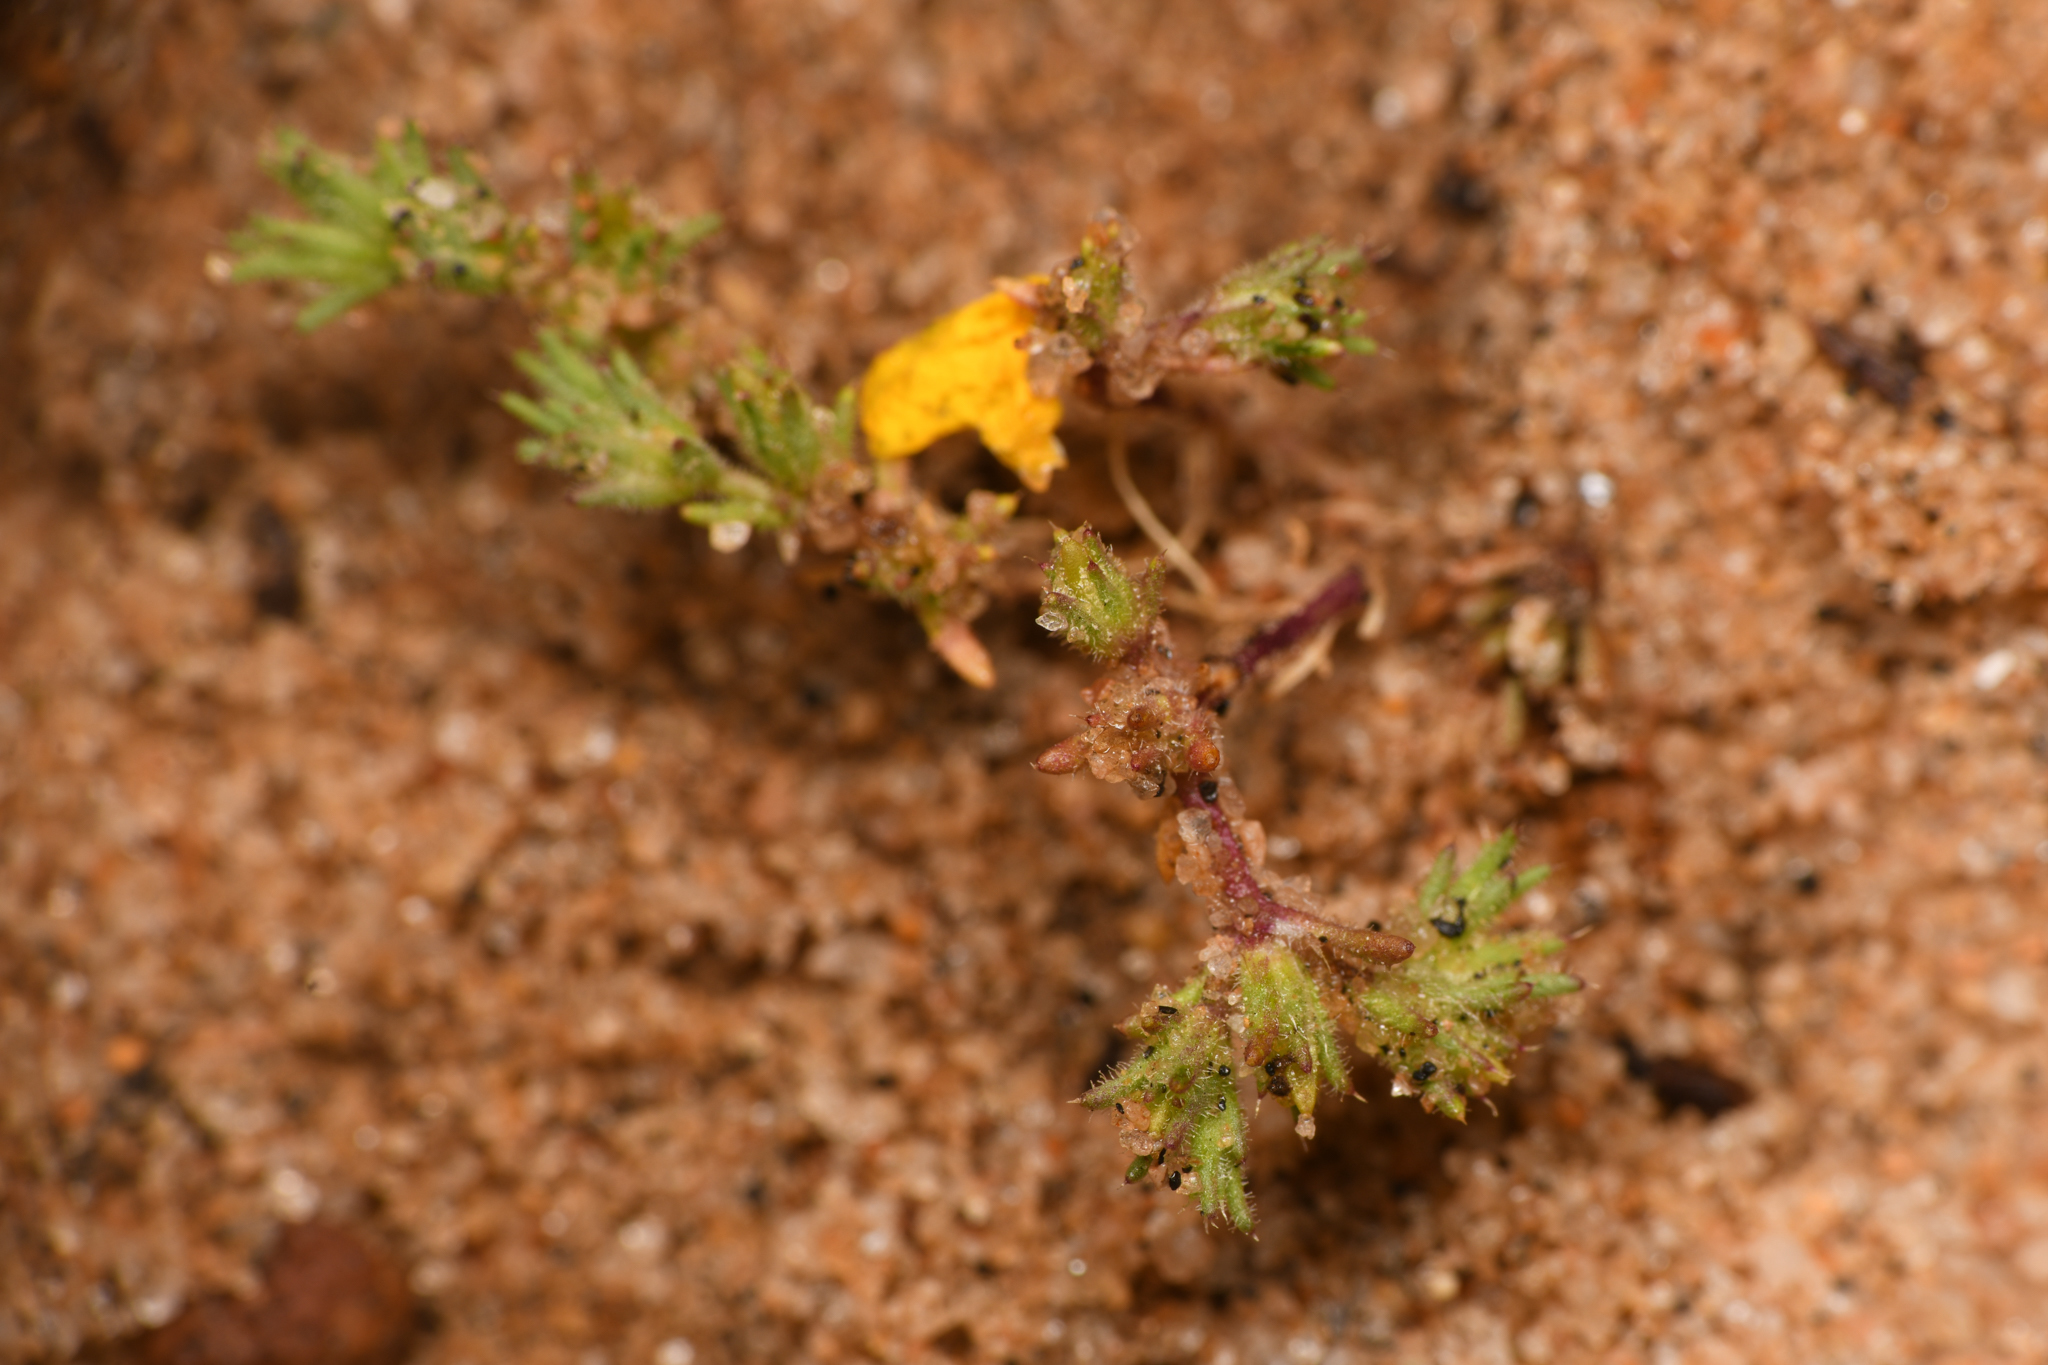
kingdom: Plantae
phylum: Tracheophyta
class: Magnoliopsida
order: Caryophyllales
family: Caryophyllaceae
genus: Loeflingia
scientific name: Loeflingia squarrosa
